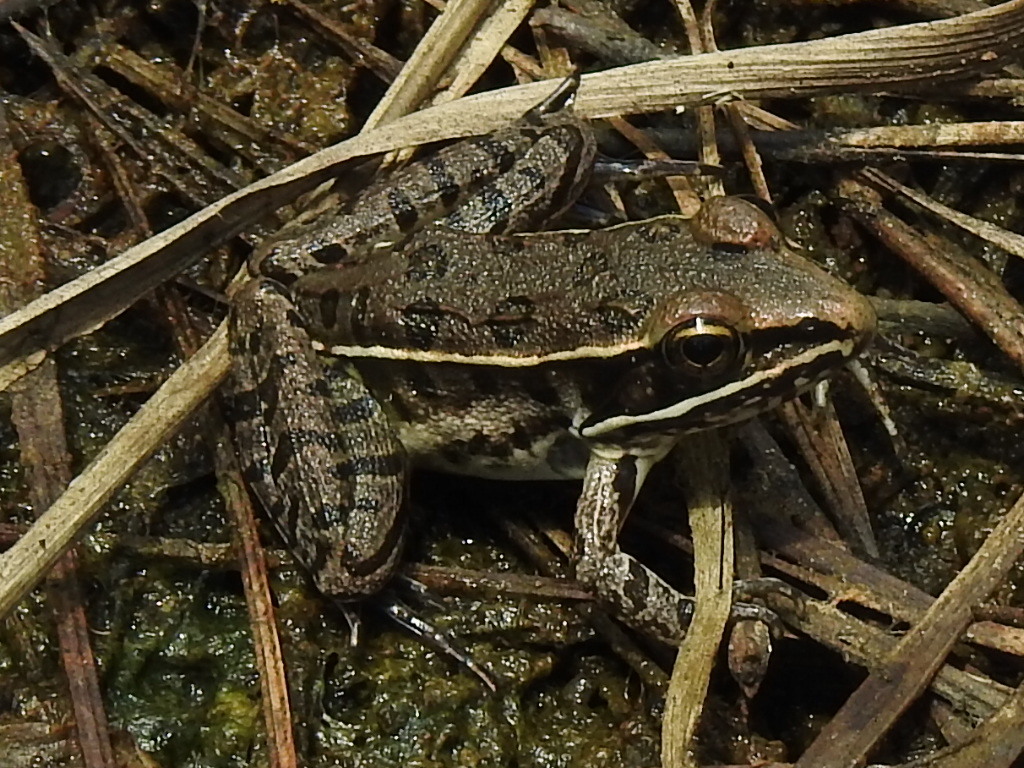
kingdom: Animalia
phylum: Chordata
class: Amphibia
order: Anura
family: Ranidae
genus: Lithobates
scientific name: Lithobates sphenocephalus
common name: Southern leopard frog
